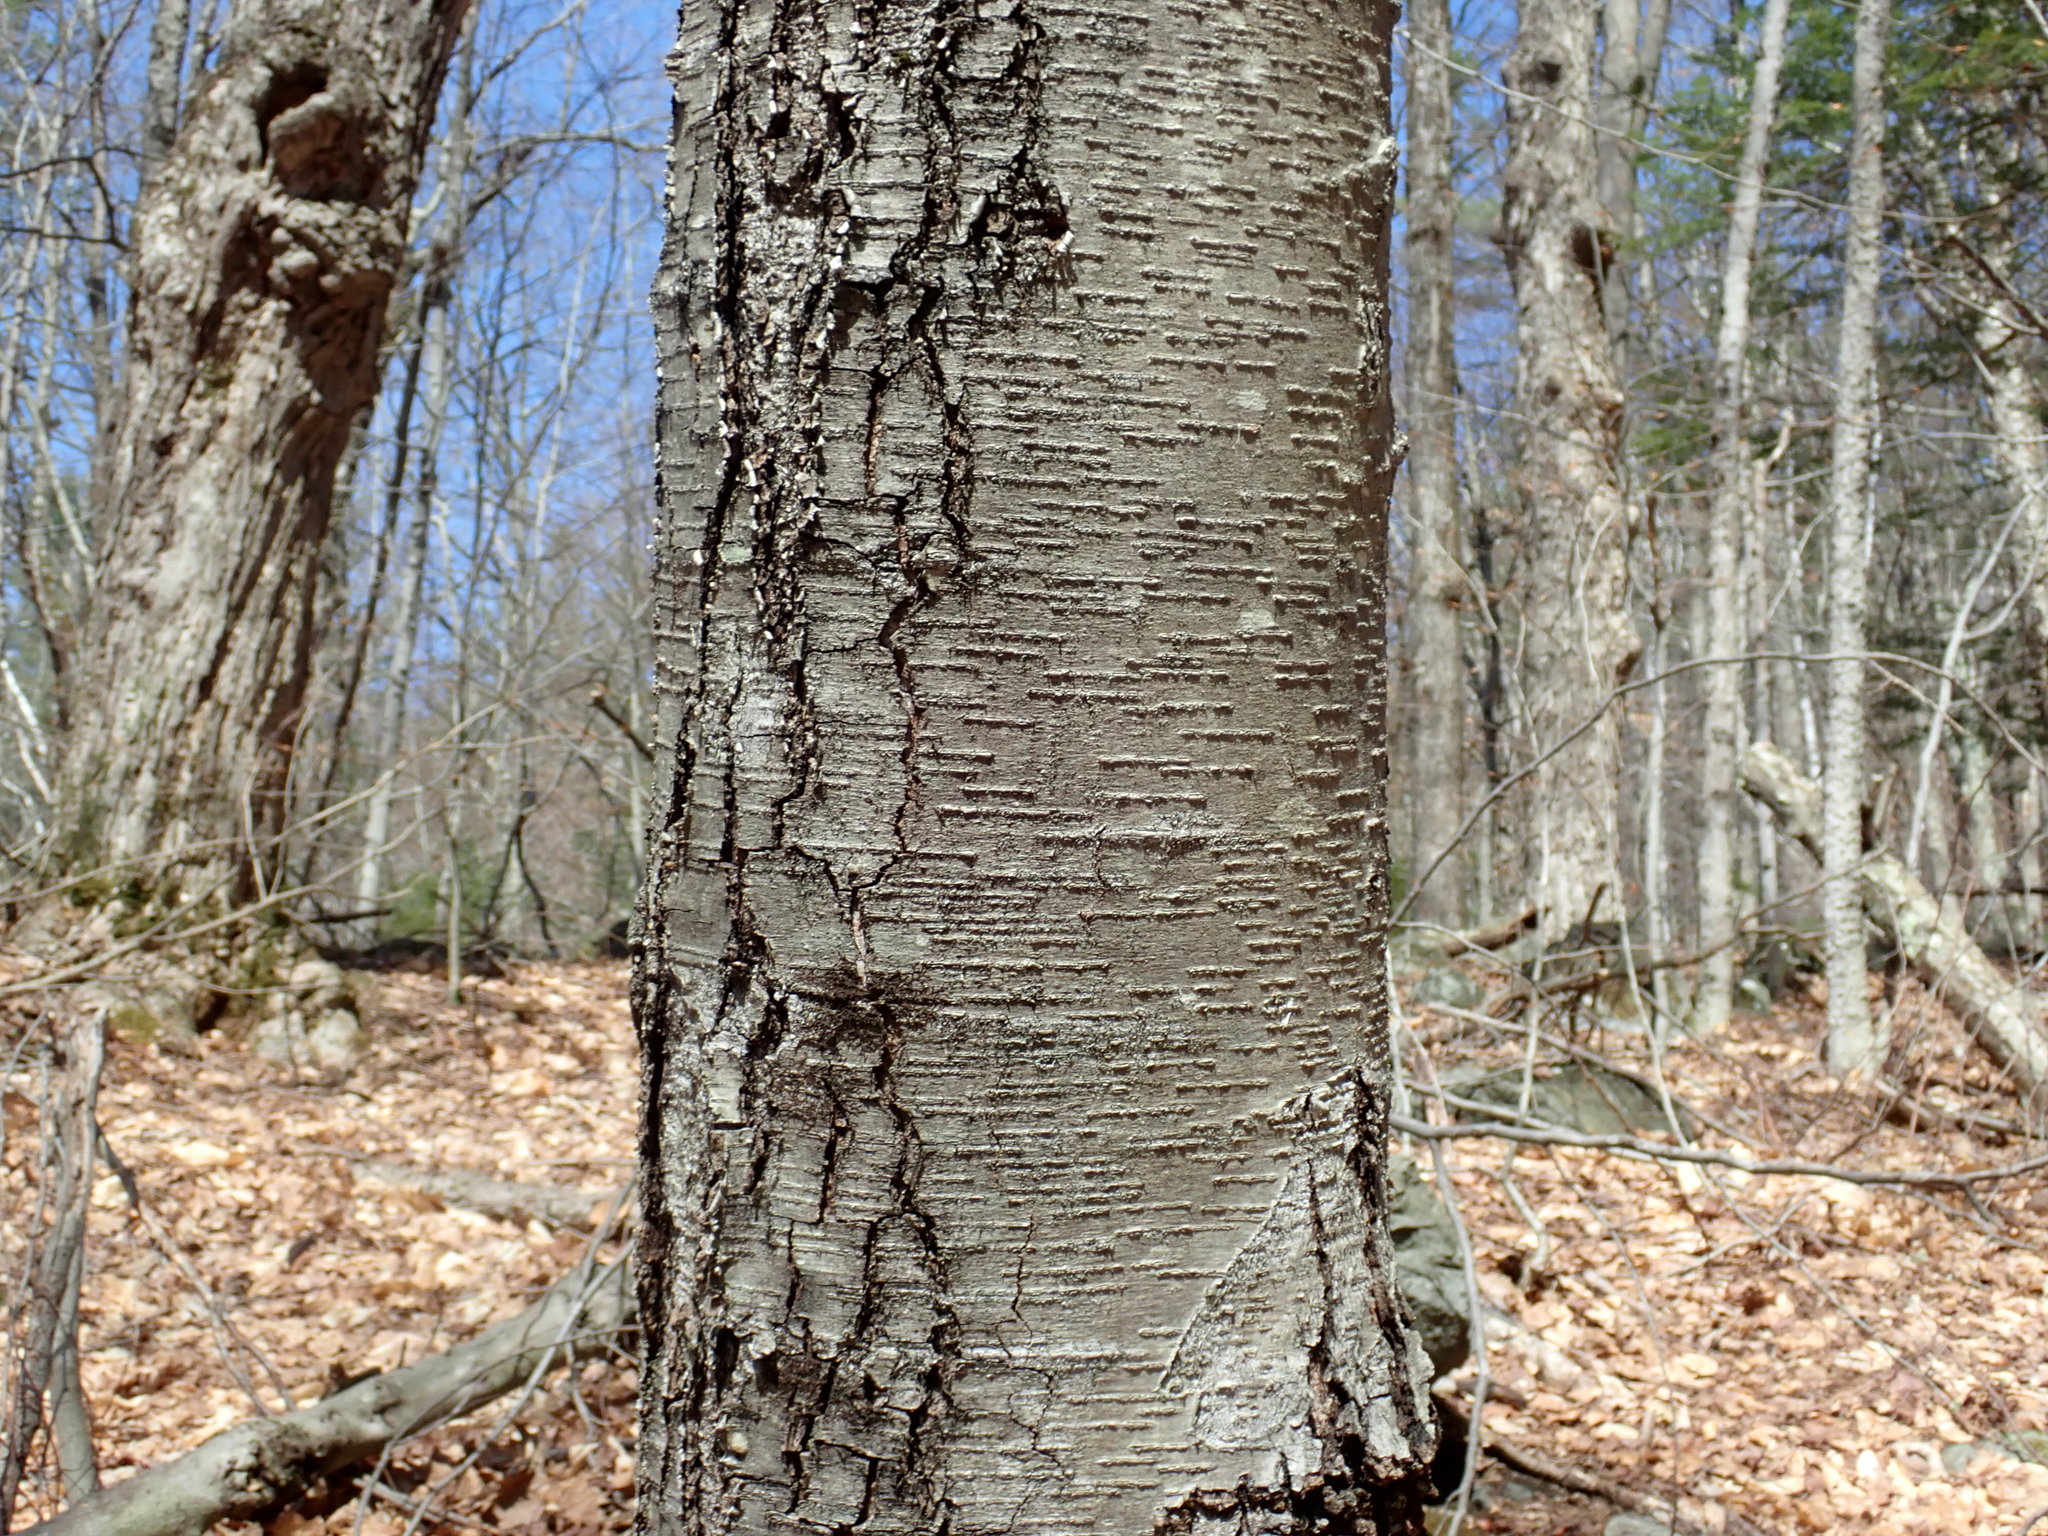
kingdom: Plantae
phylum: Tracheophyta
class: Magnoliopsida
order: Fagales
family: Betulaceae
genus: Betula
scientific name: Betula lenta
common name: Black birch
